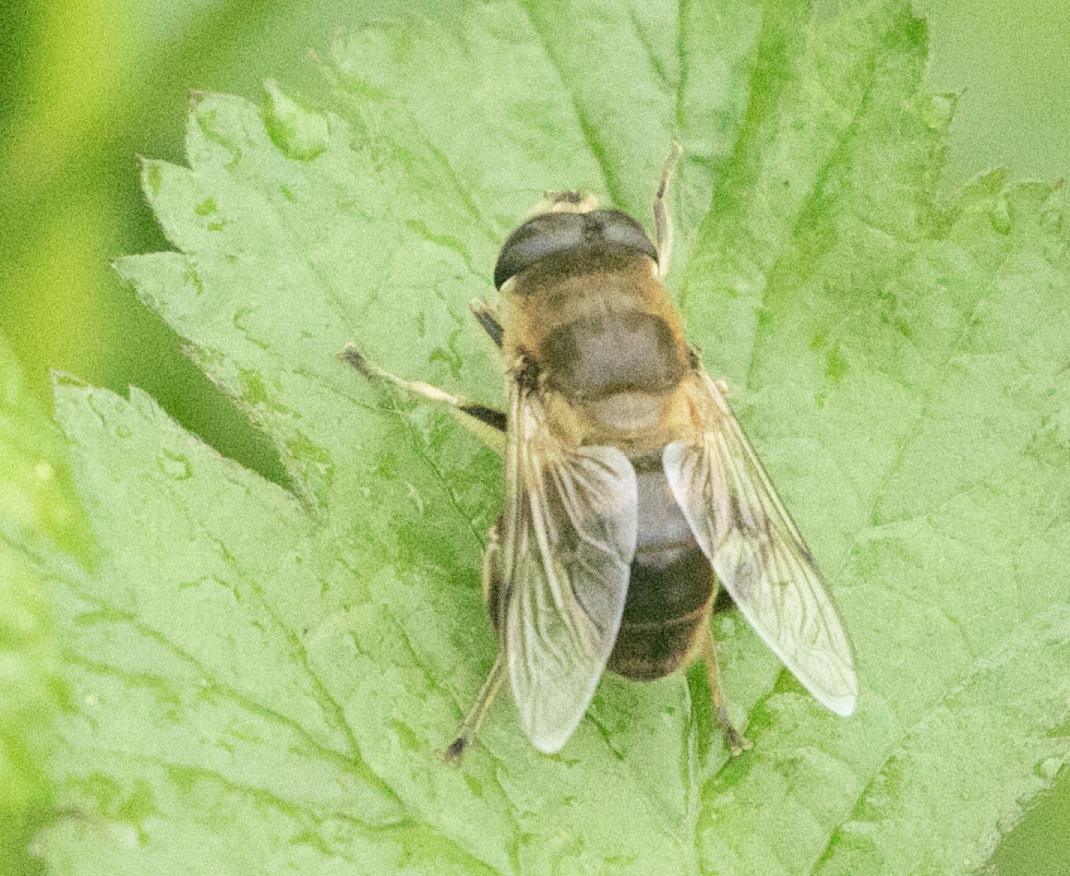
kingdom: Animalia
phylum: Arthropoda
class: Insecta
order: Diptera
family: Syrphidae
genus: Eristalis
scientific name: Eristalis tenax
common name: Drone fly
